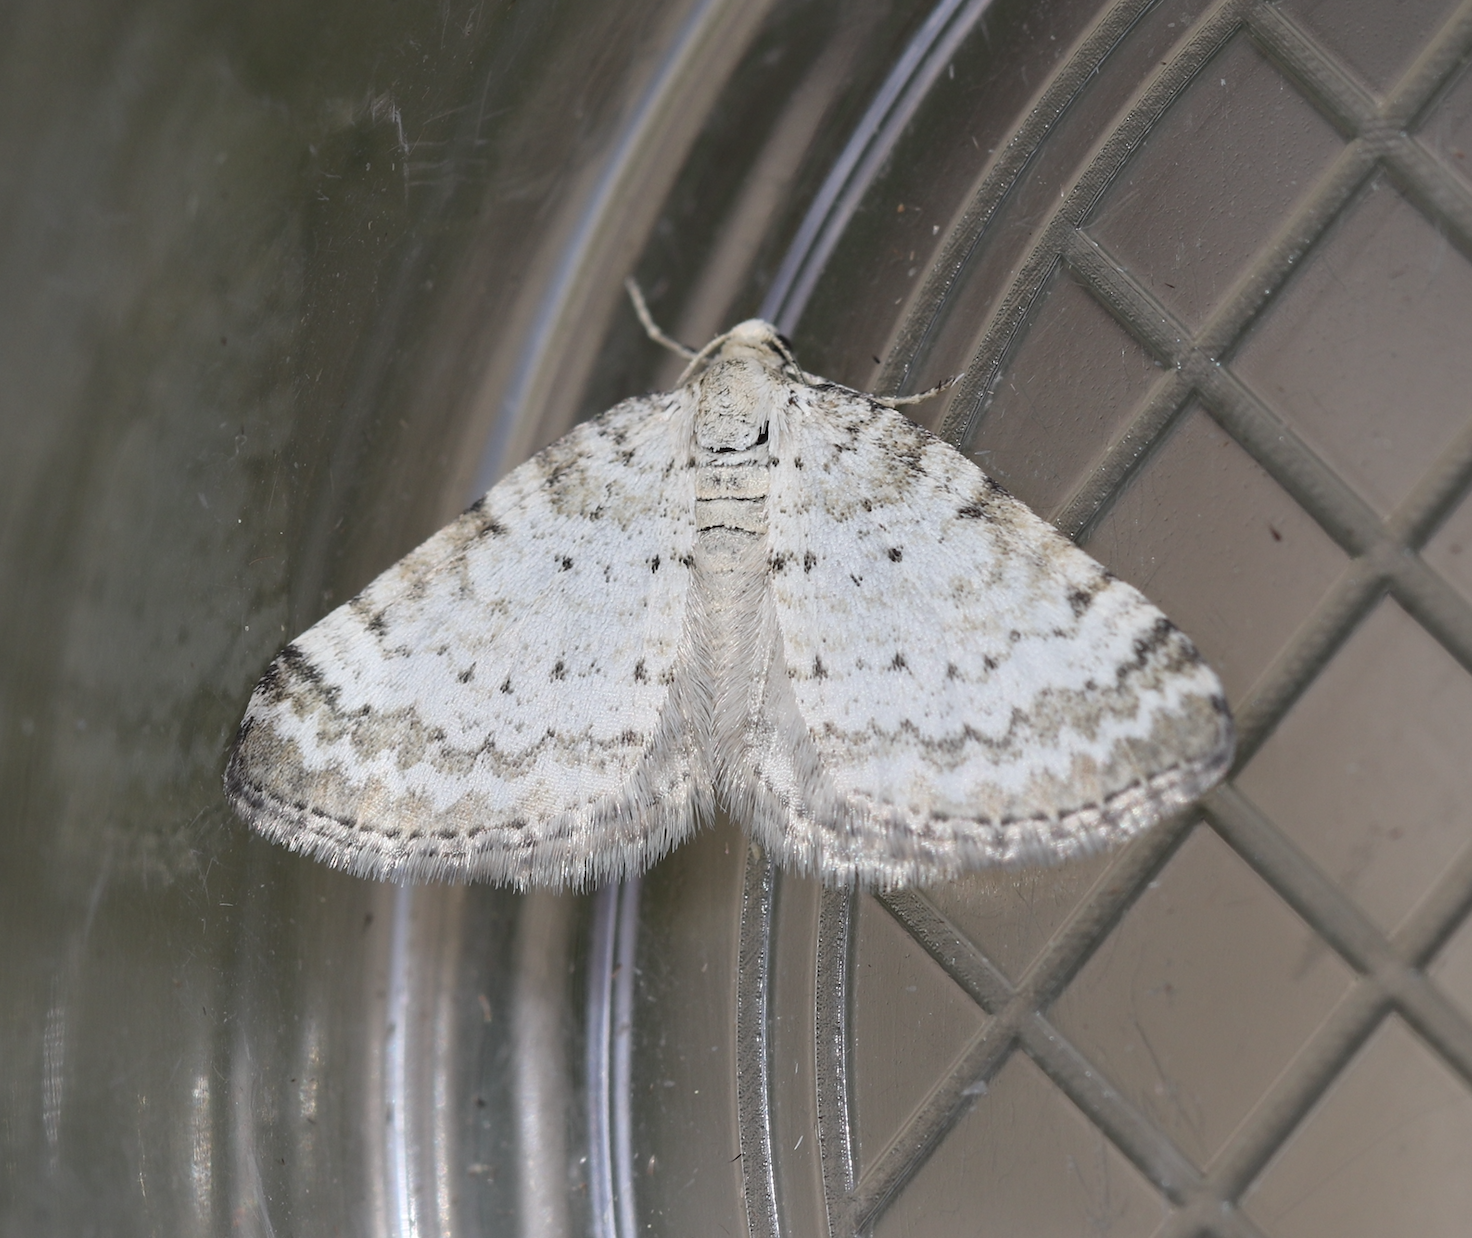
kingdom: Animalia
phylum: Arthropoda
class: Insecta
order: Lepidoptera
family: Geometridae
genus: Perizoma
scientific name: Perizoma albulata
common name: Grass rivulet
